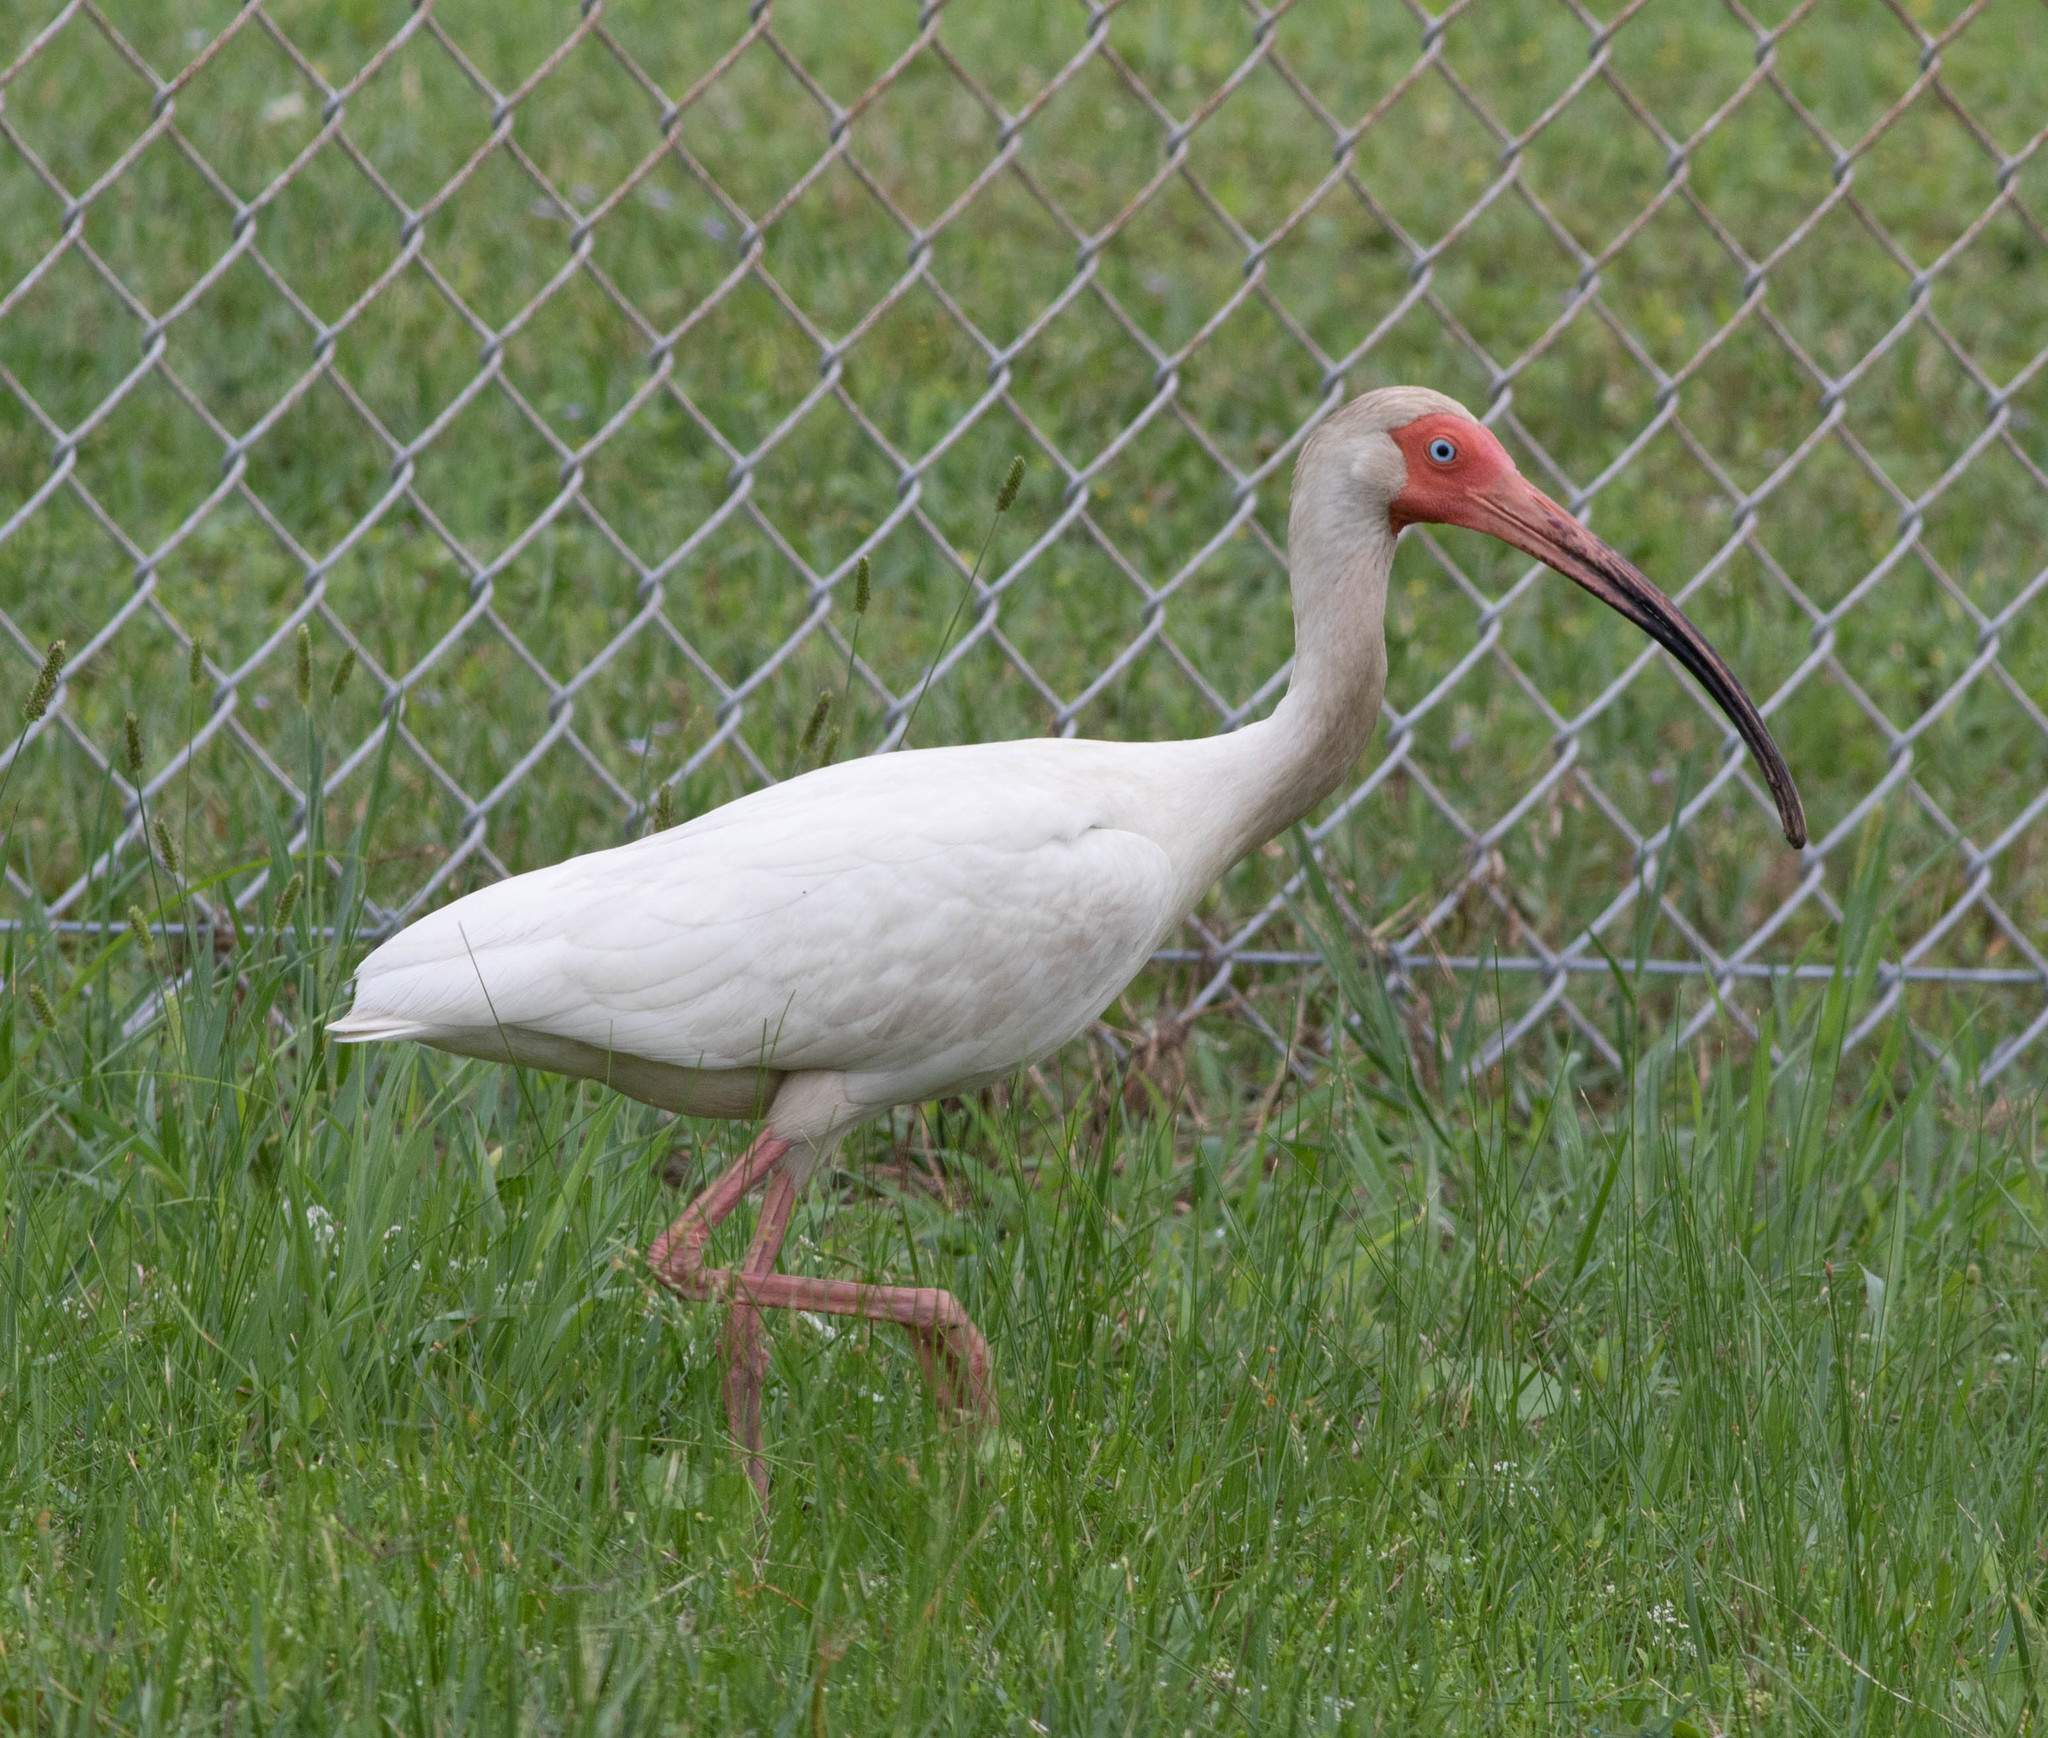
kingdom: Animalia
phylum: Chordata
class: Aves
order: Pelecaniformes
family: Threskiornithidae
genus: Eudocimus
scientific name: Eudocimus albus
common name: White ibis
